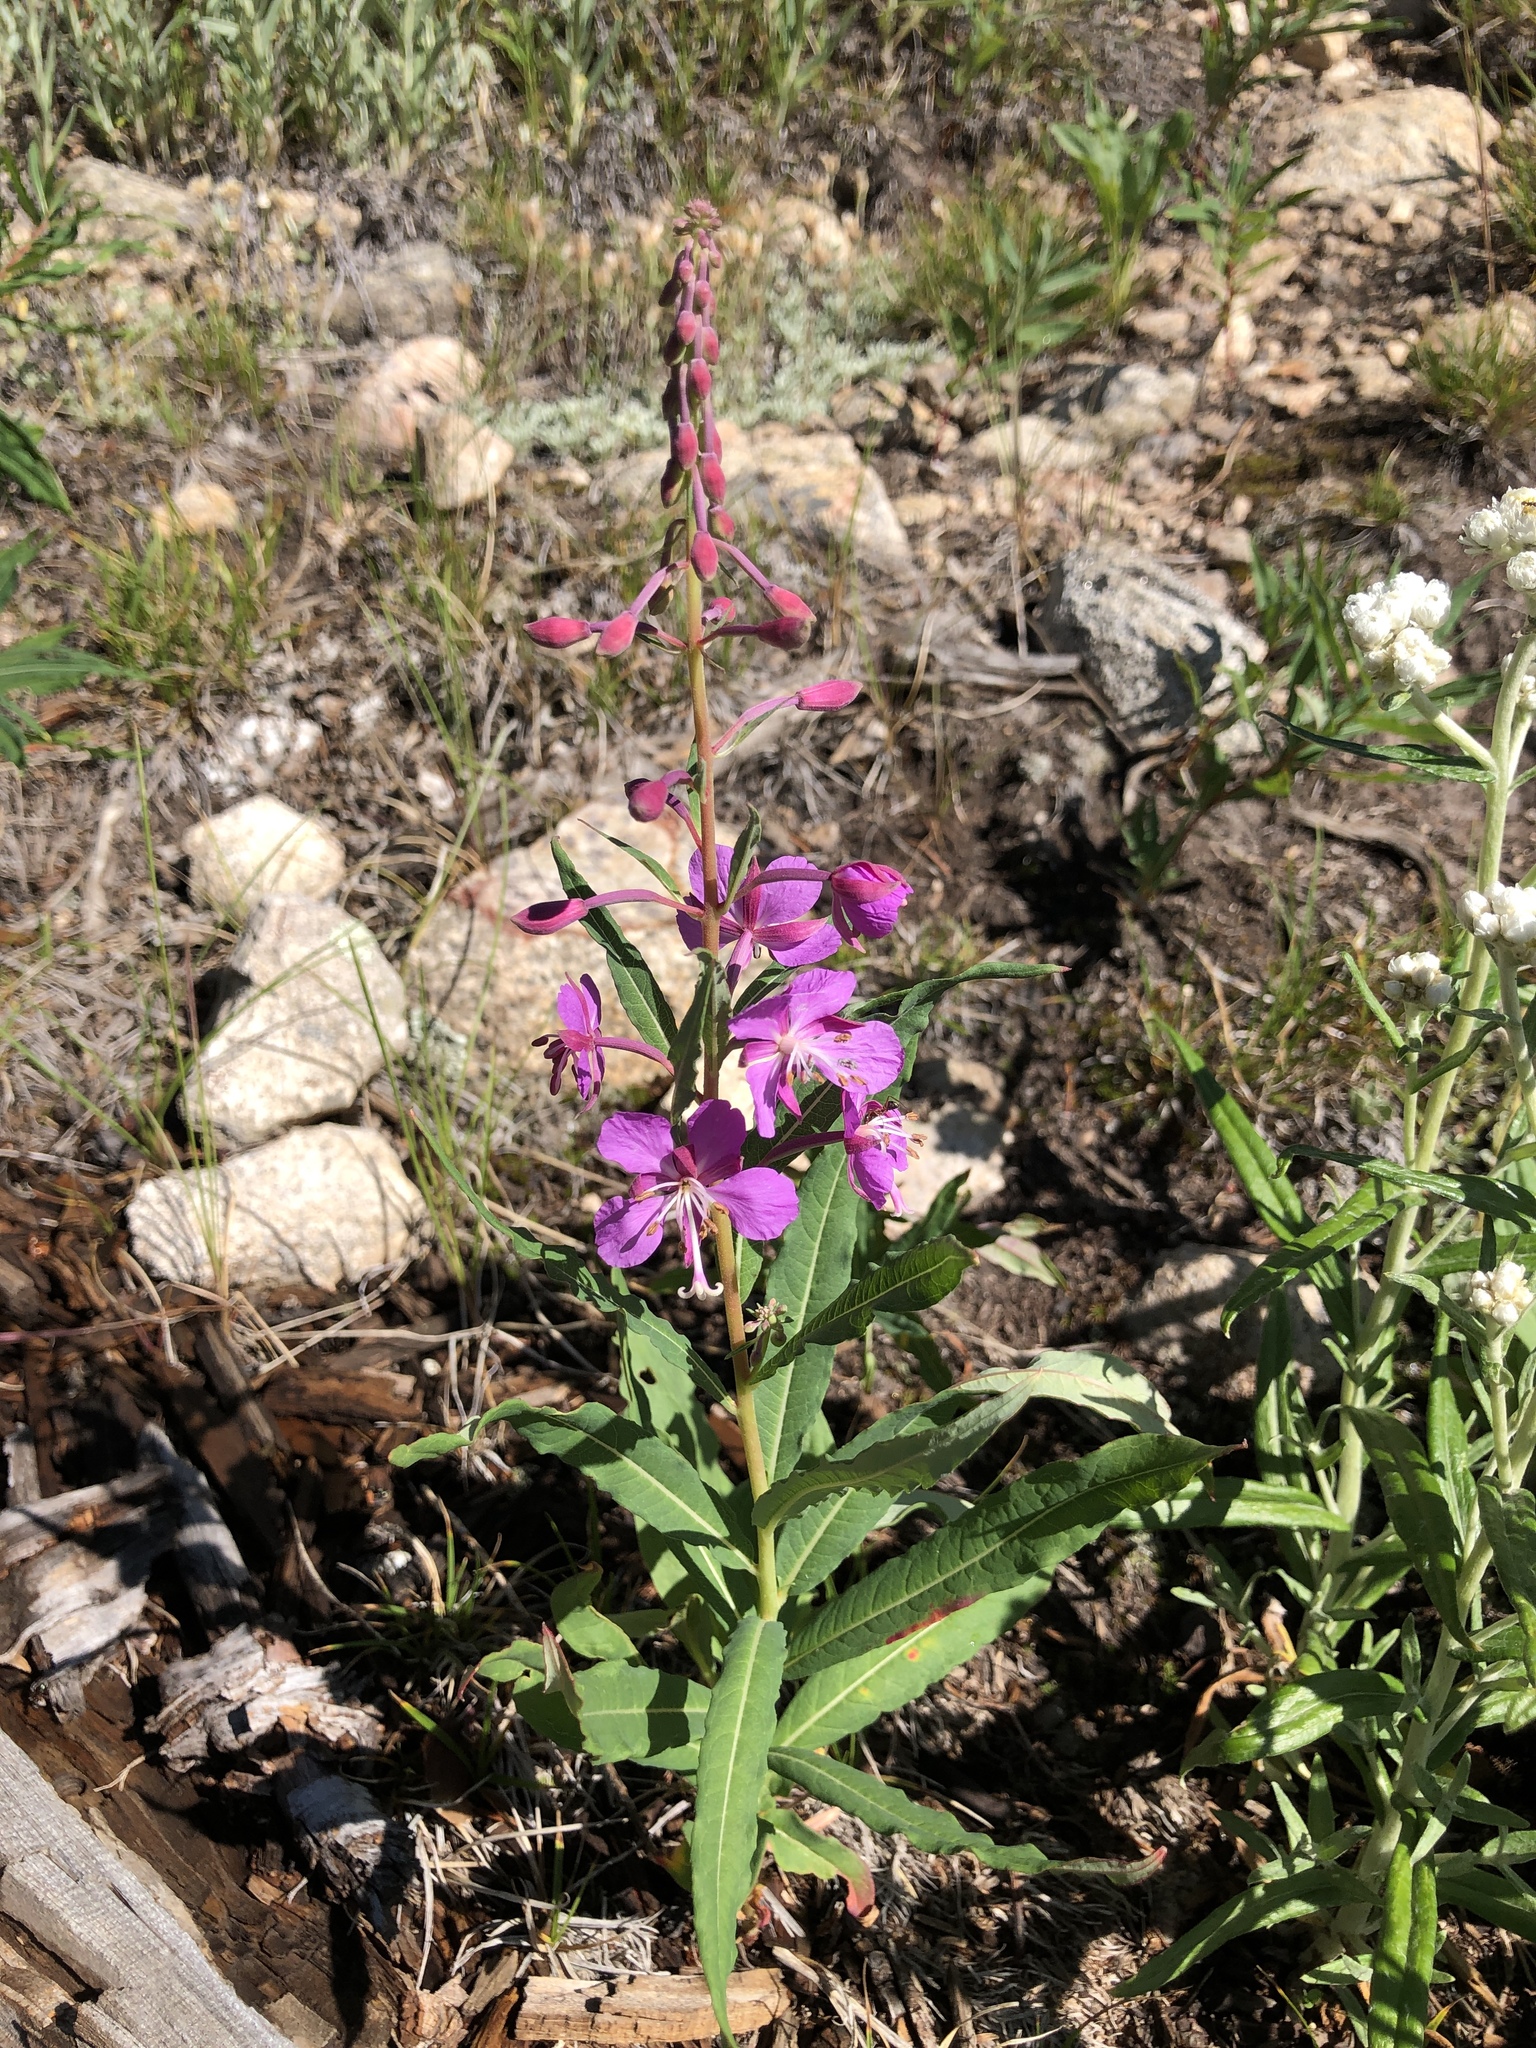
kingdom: Plantae
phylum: Tracheophyta
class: Magnoliopsida
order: Myrtales
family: Onagraceae
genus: Chamaenerion
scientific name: Chamaenerion angustifolium
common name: Fireweed
